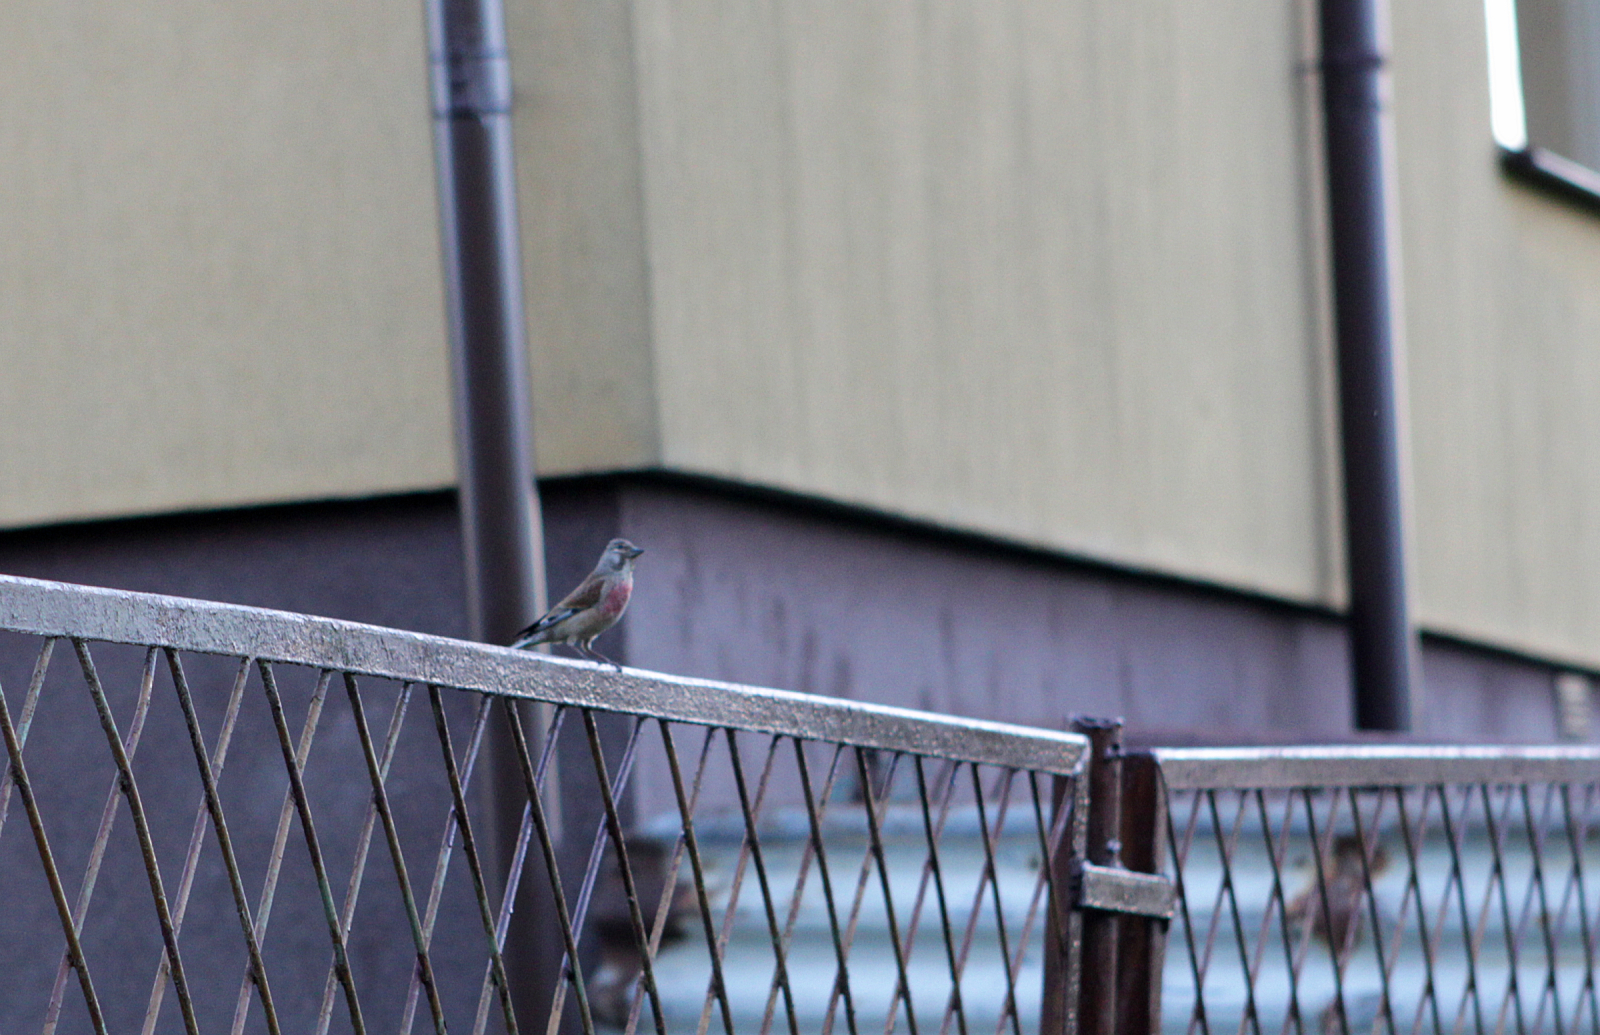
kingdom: Animalia
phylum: Chordata
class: Aves
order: Passeriformes
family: Fringillidae
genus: Linaria
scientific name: Linaria cannabina
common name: Common linnet
